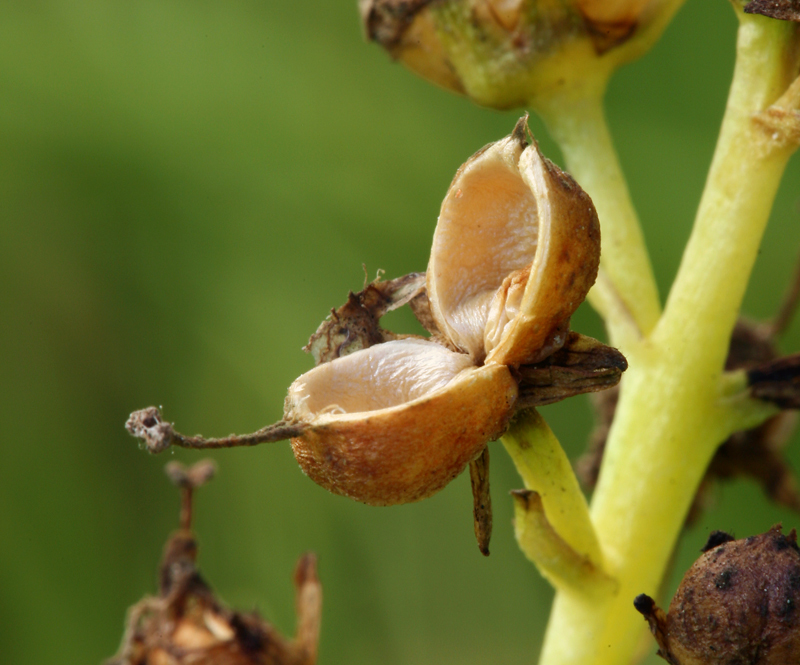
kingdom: Plantae
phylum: Tracheophyta
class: Magnoliopsida
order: Asterales
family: Menyanthaceae
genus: Menyanthes
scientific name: Menyanthes trifoliata
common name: Bogbean
